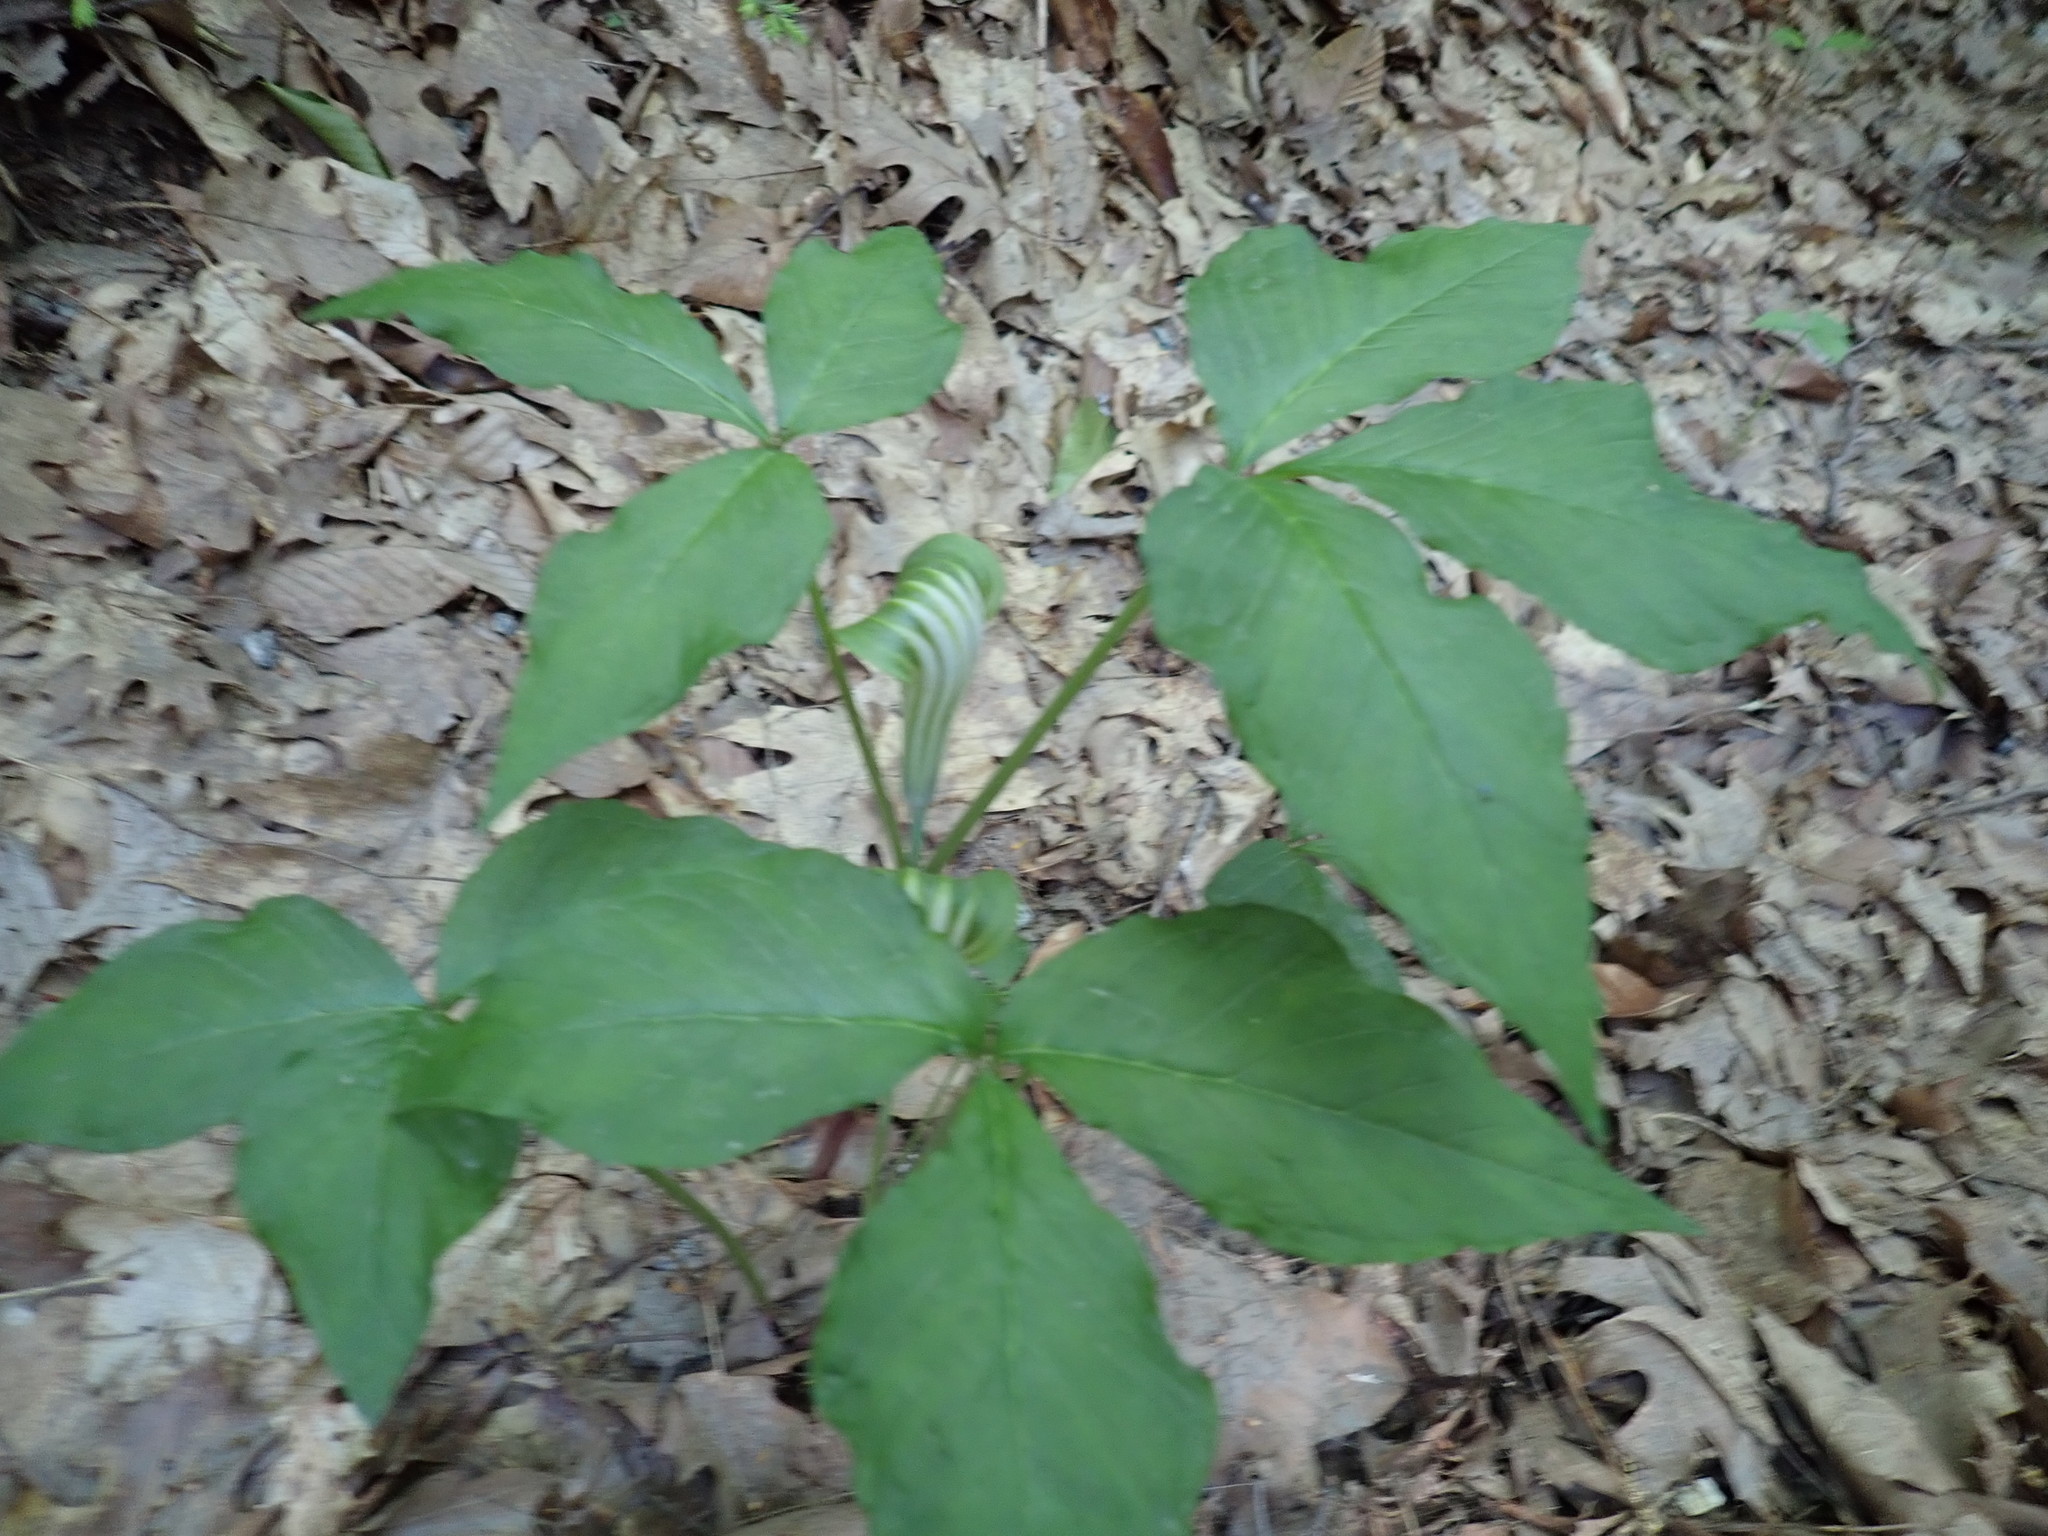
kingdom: Plantae
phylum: Tracheophyta
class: Liliopsida
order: Alismatales
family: Araceae
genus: Arisaema
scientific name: Arisaema triphyllum
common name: Jack-in-the-pulpit
